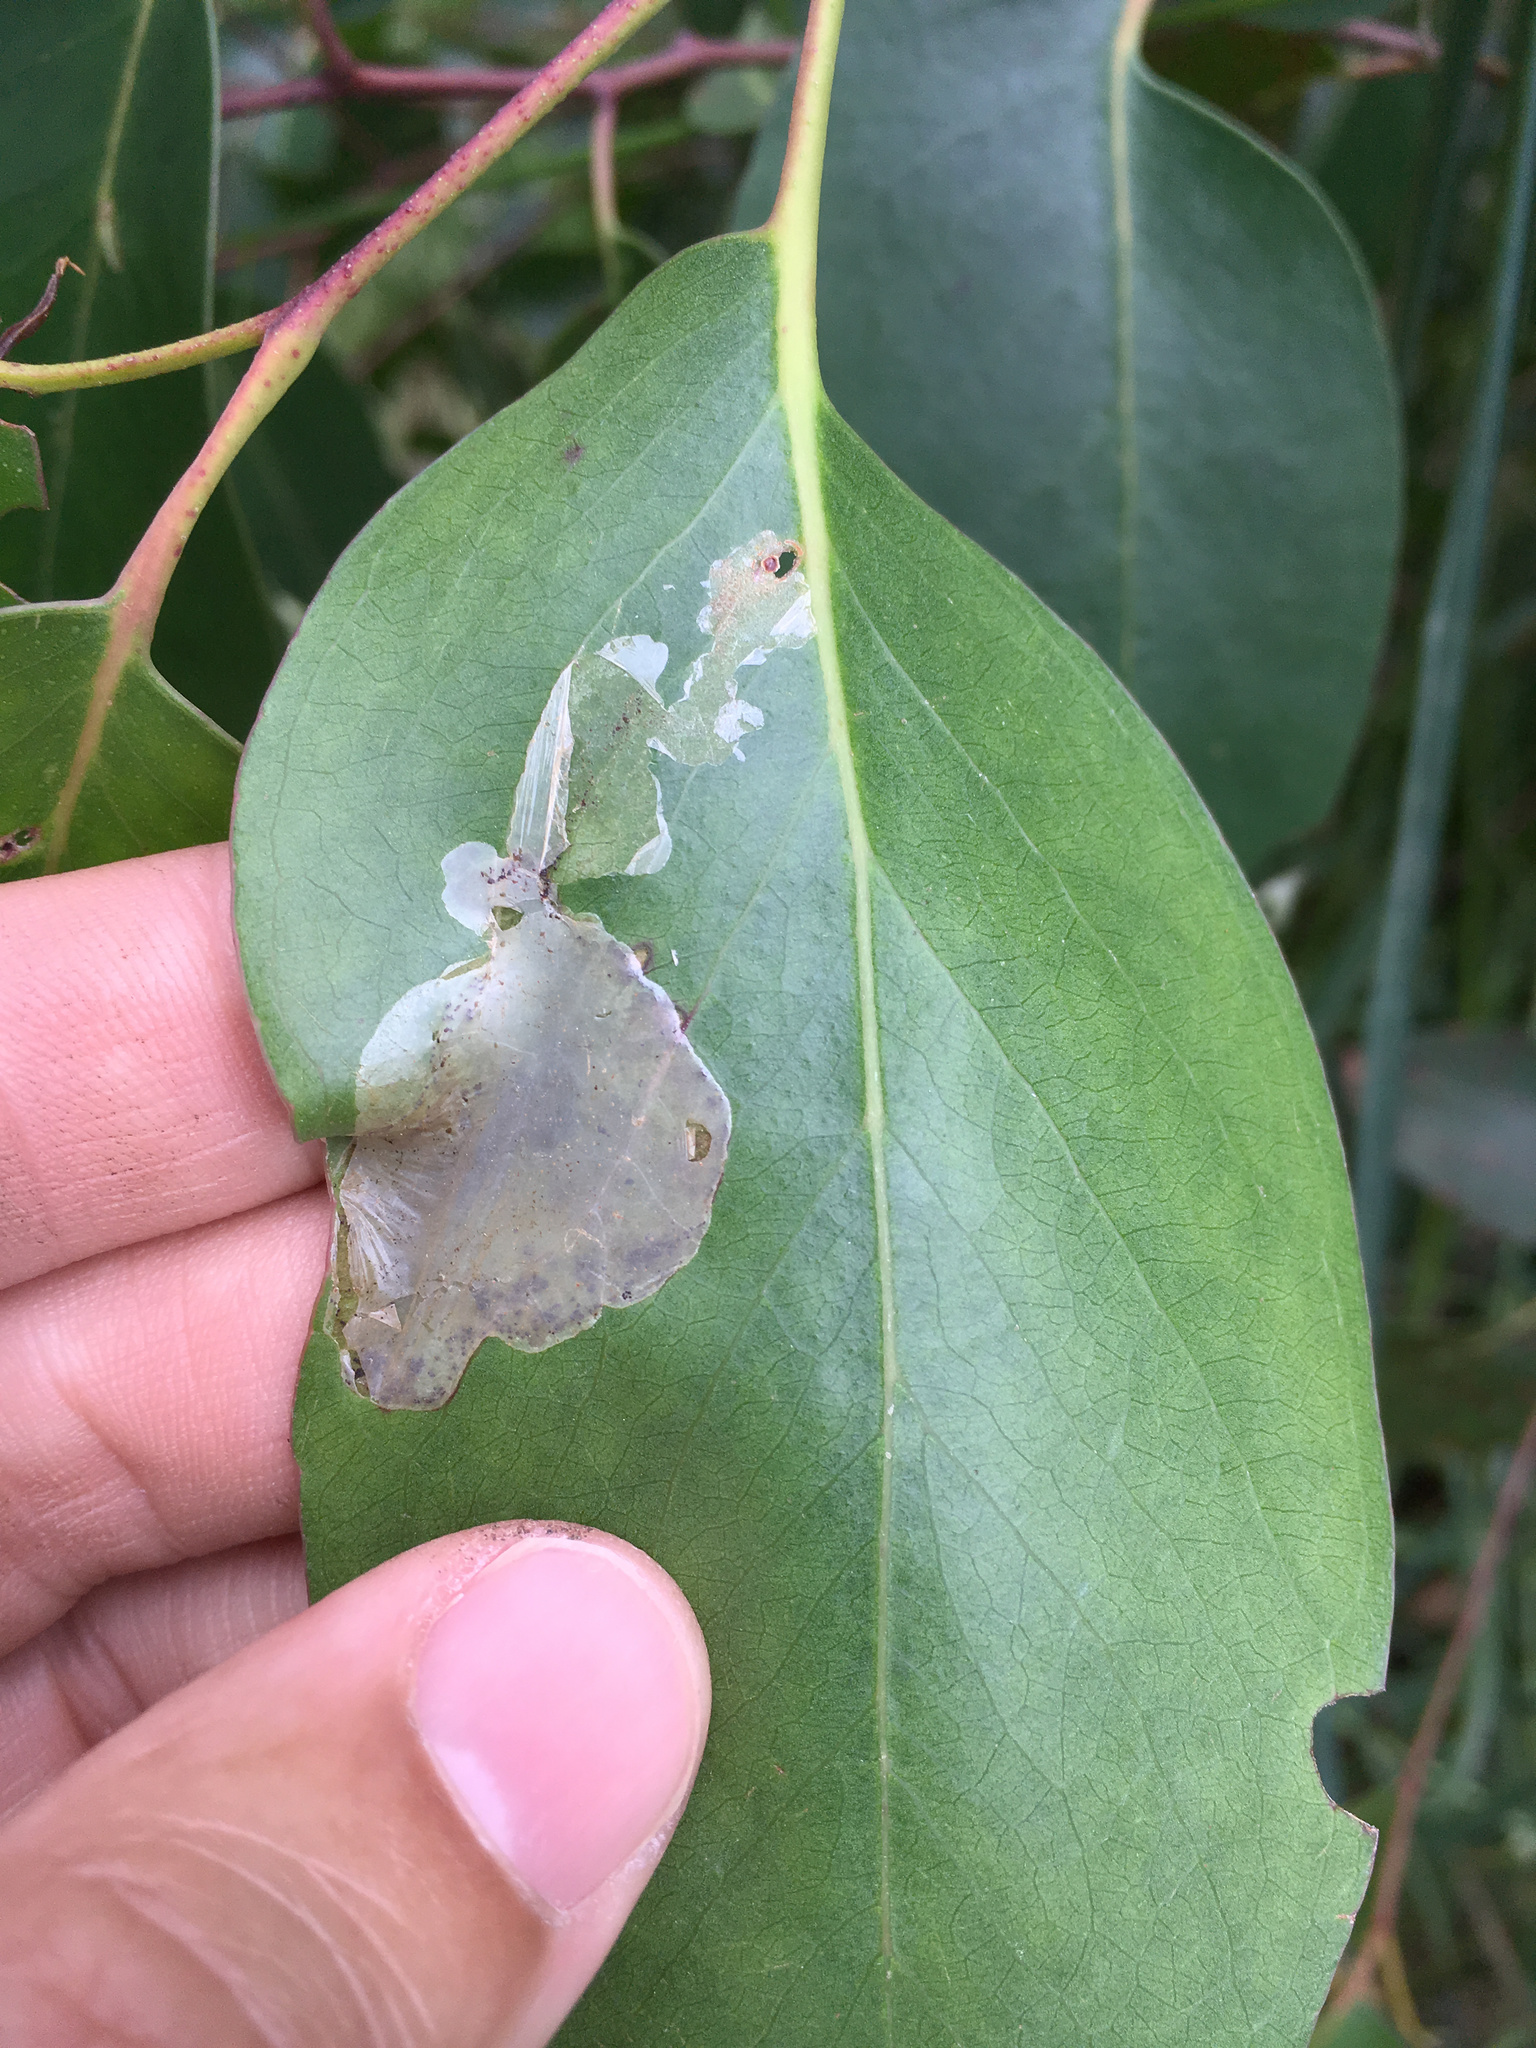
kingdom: Animalia
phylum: Arthropoda
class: Insecta
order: Hymenoptera
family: Pergidae
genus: Phylacteophaga
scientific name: Phylacteophaga froggatti
